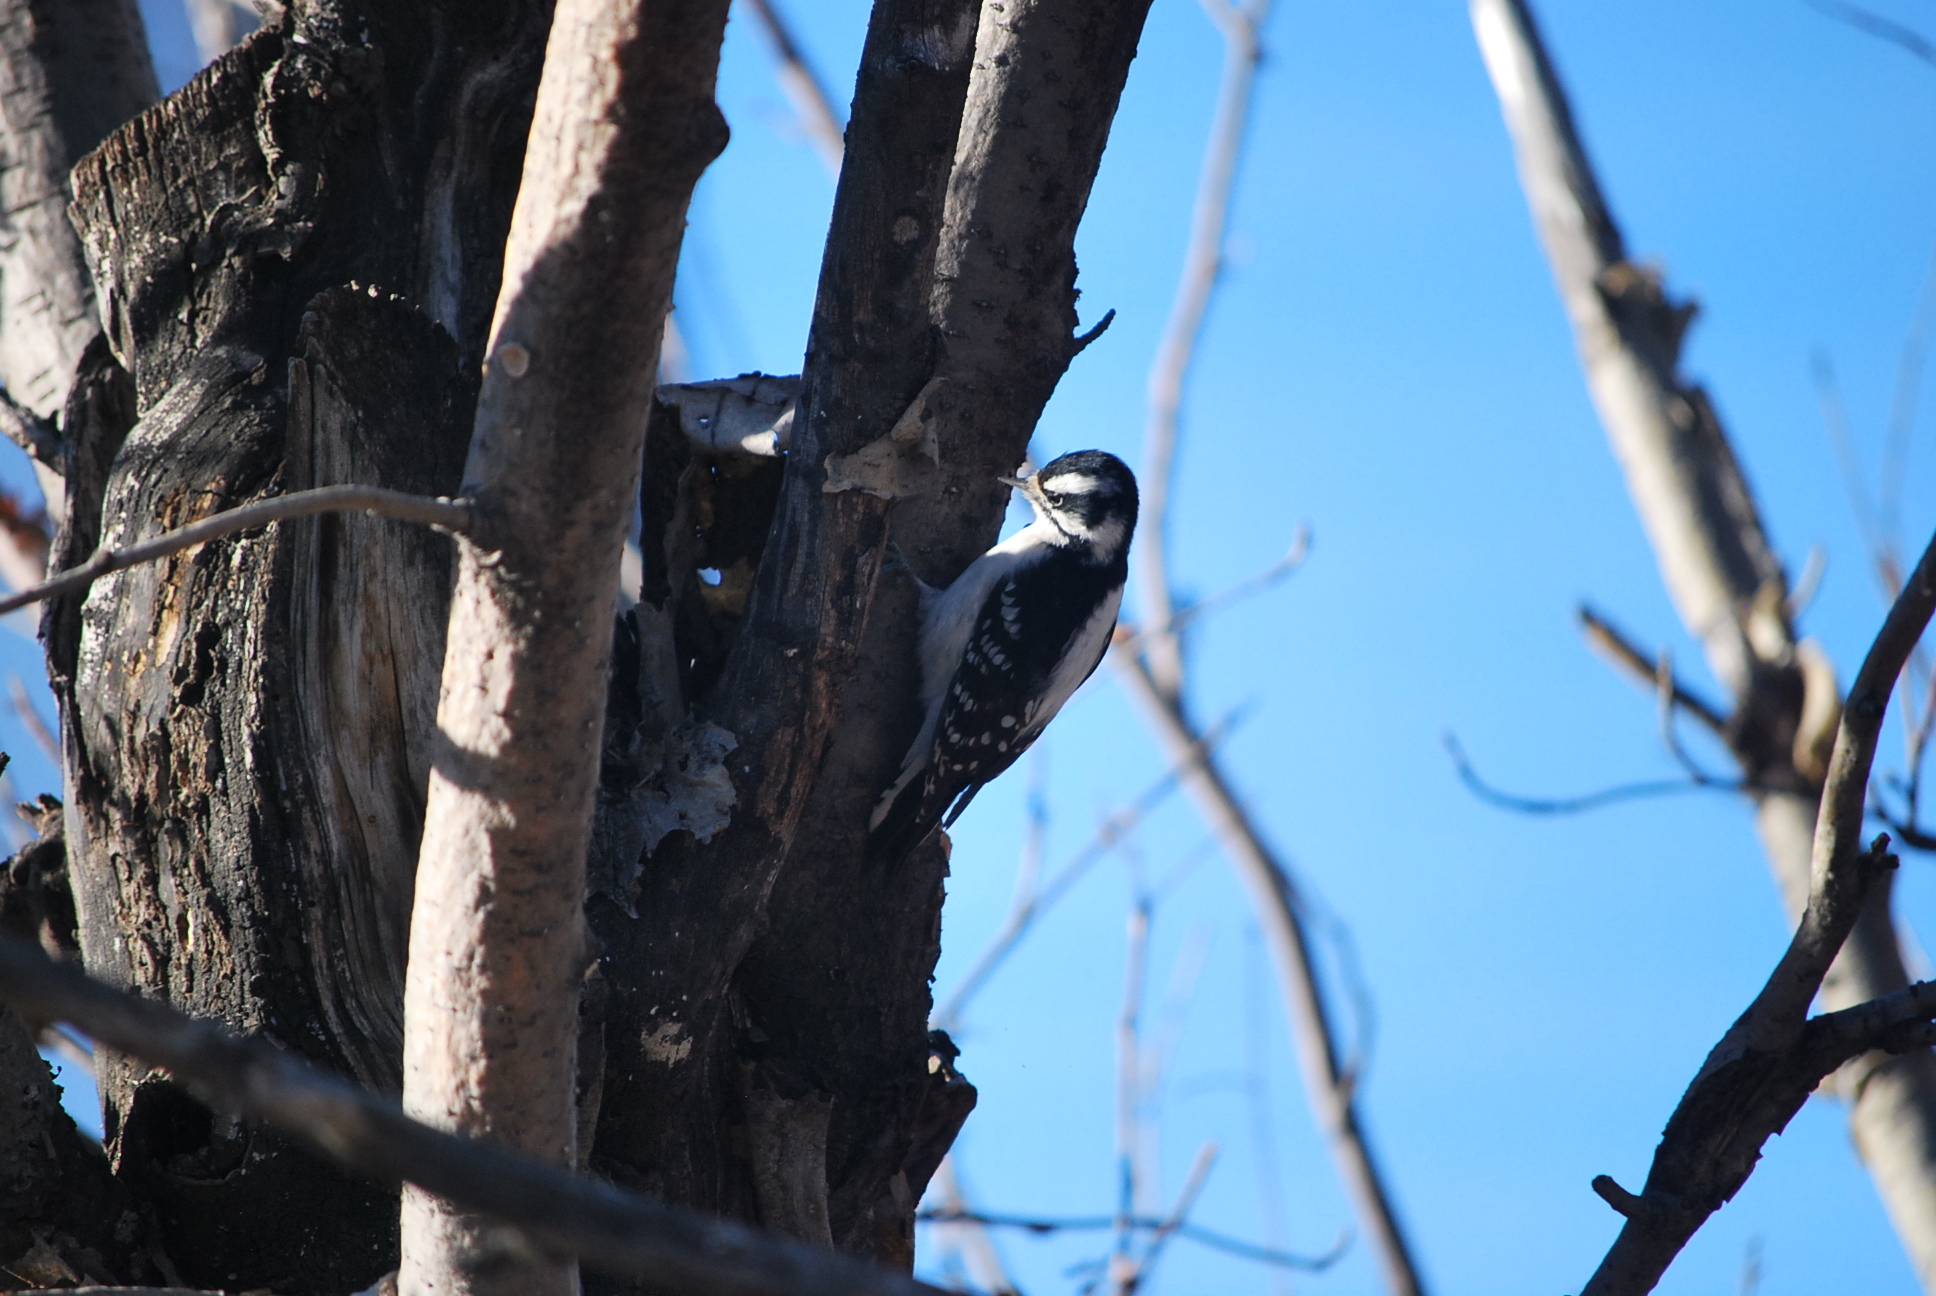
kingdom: Animalia
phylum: Chordata
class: Aves
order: Piciformes
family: Picidae
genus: Dryobates
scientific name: Dryobates pubescens
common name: Downy woodpecker
